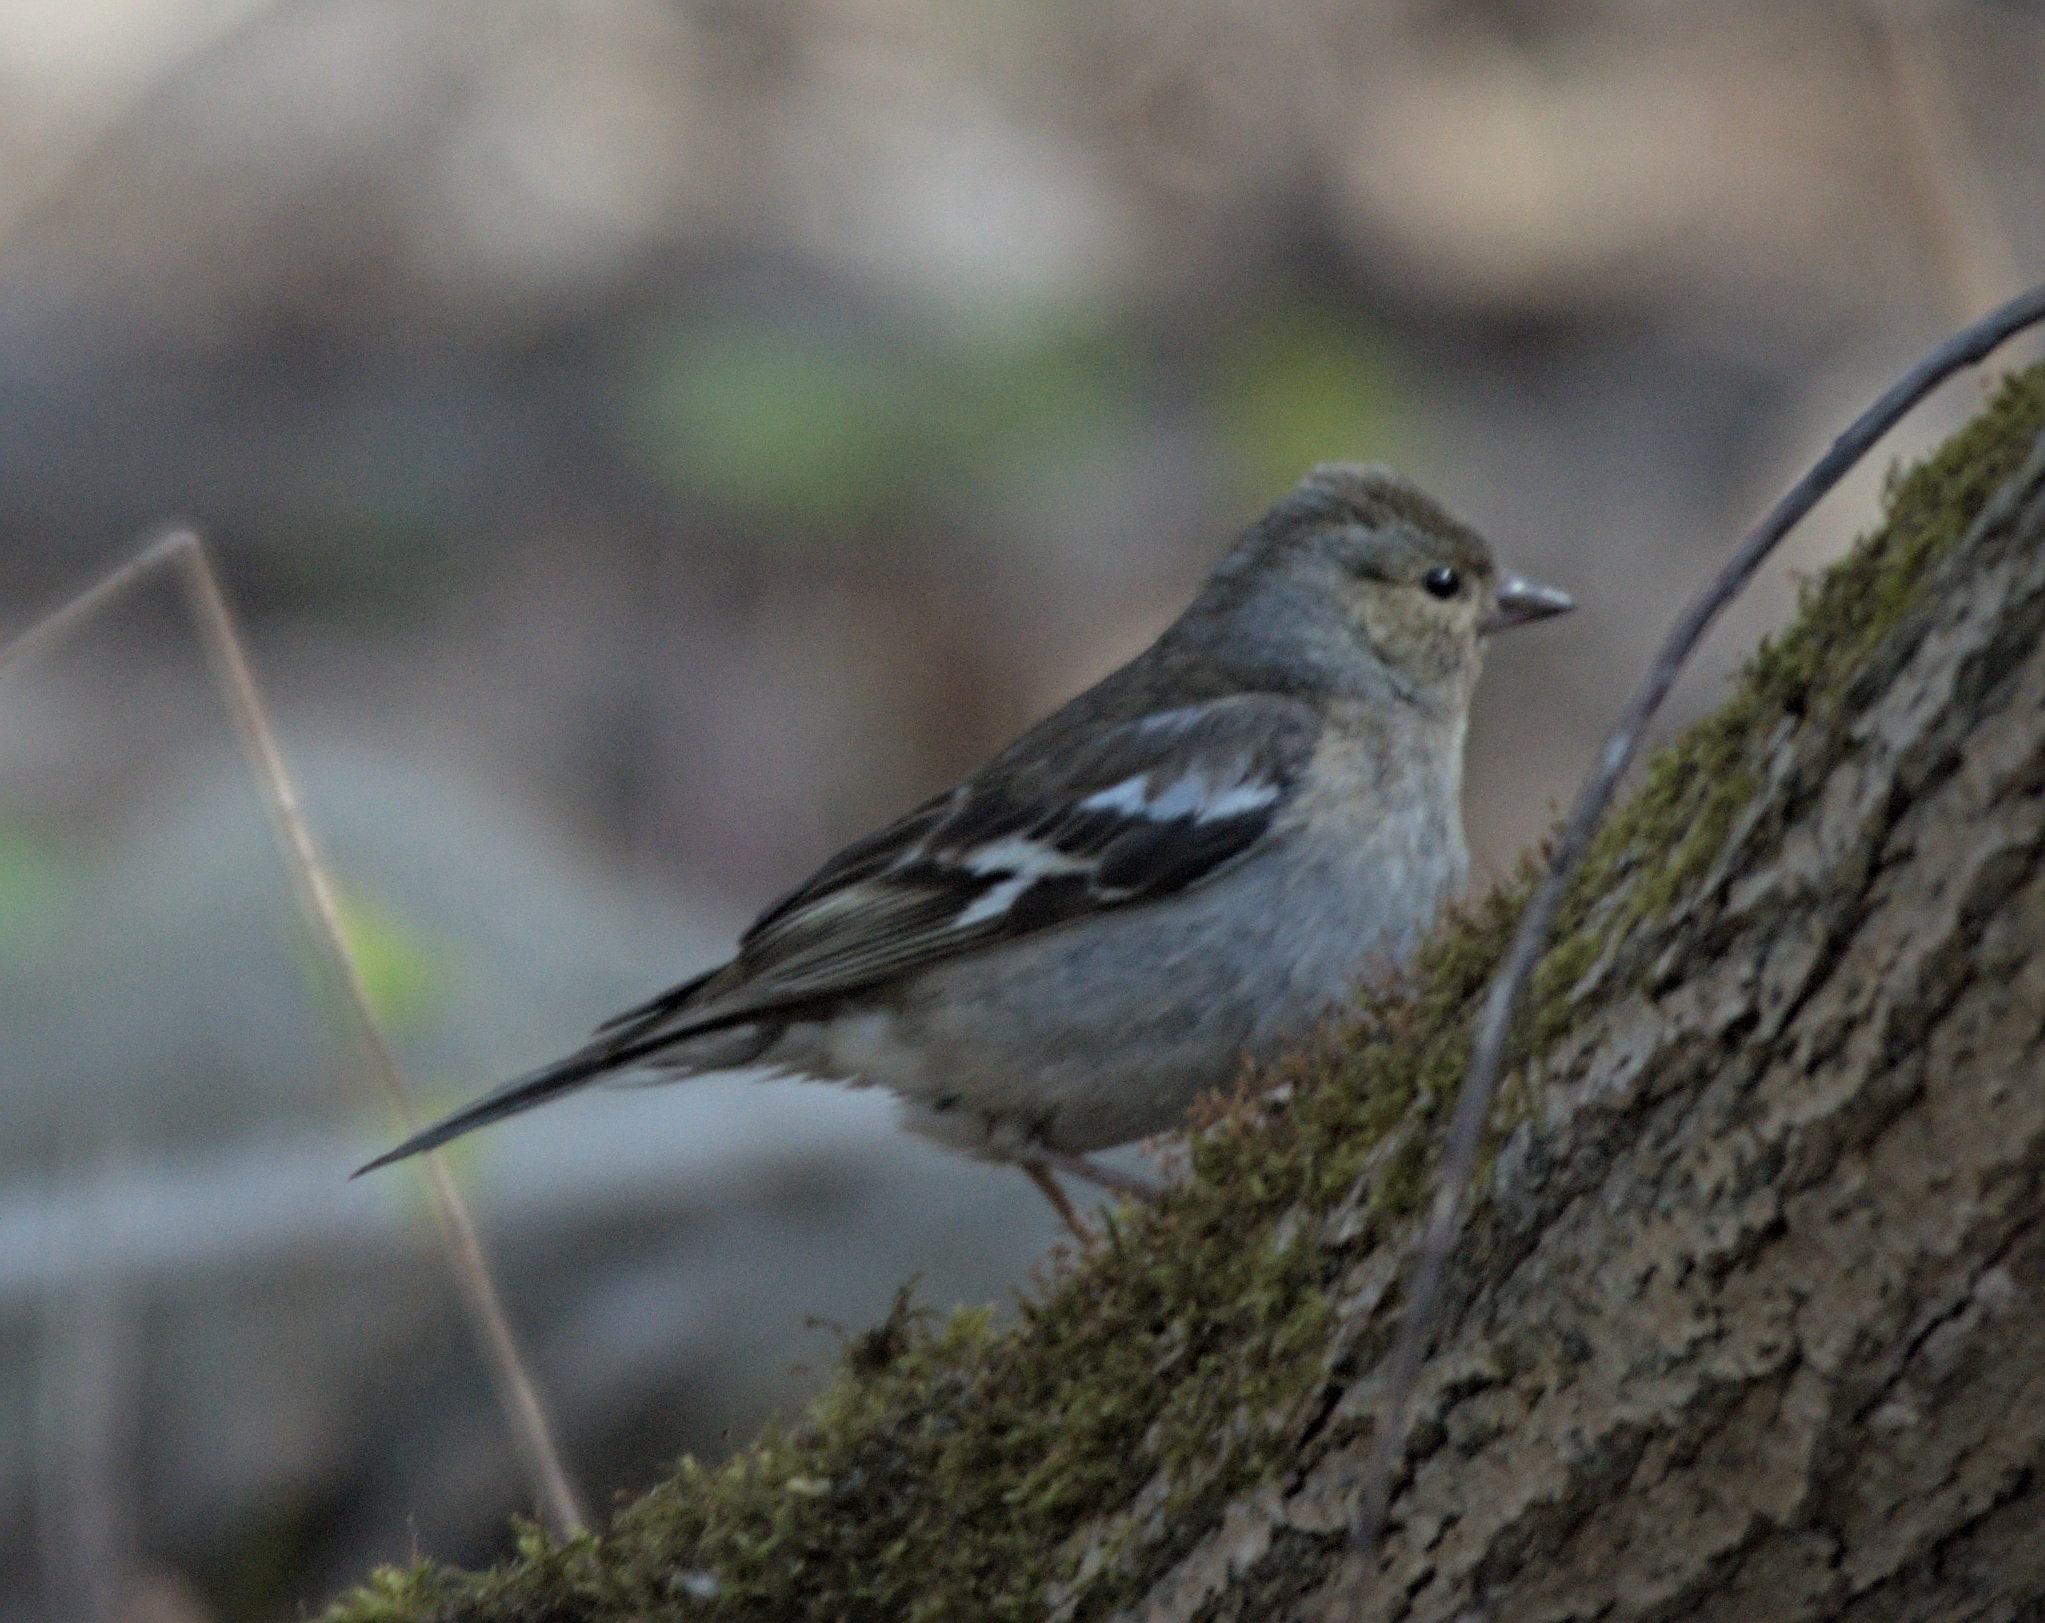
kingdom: Animalia
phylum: Chordata
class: Aves
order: Passeriformes
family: Fringillidae
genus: Fringilla
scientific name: Fringilla coelebs
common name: Common chaffinch
